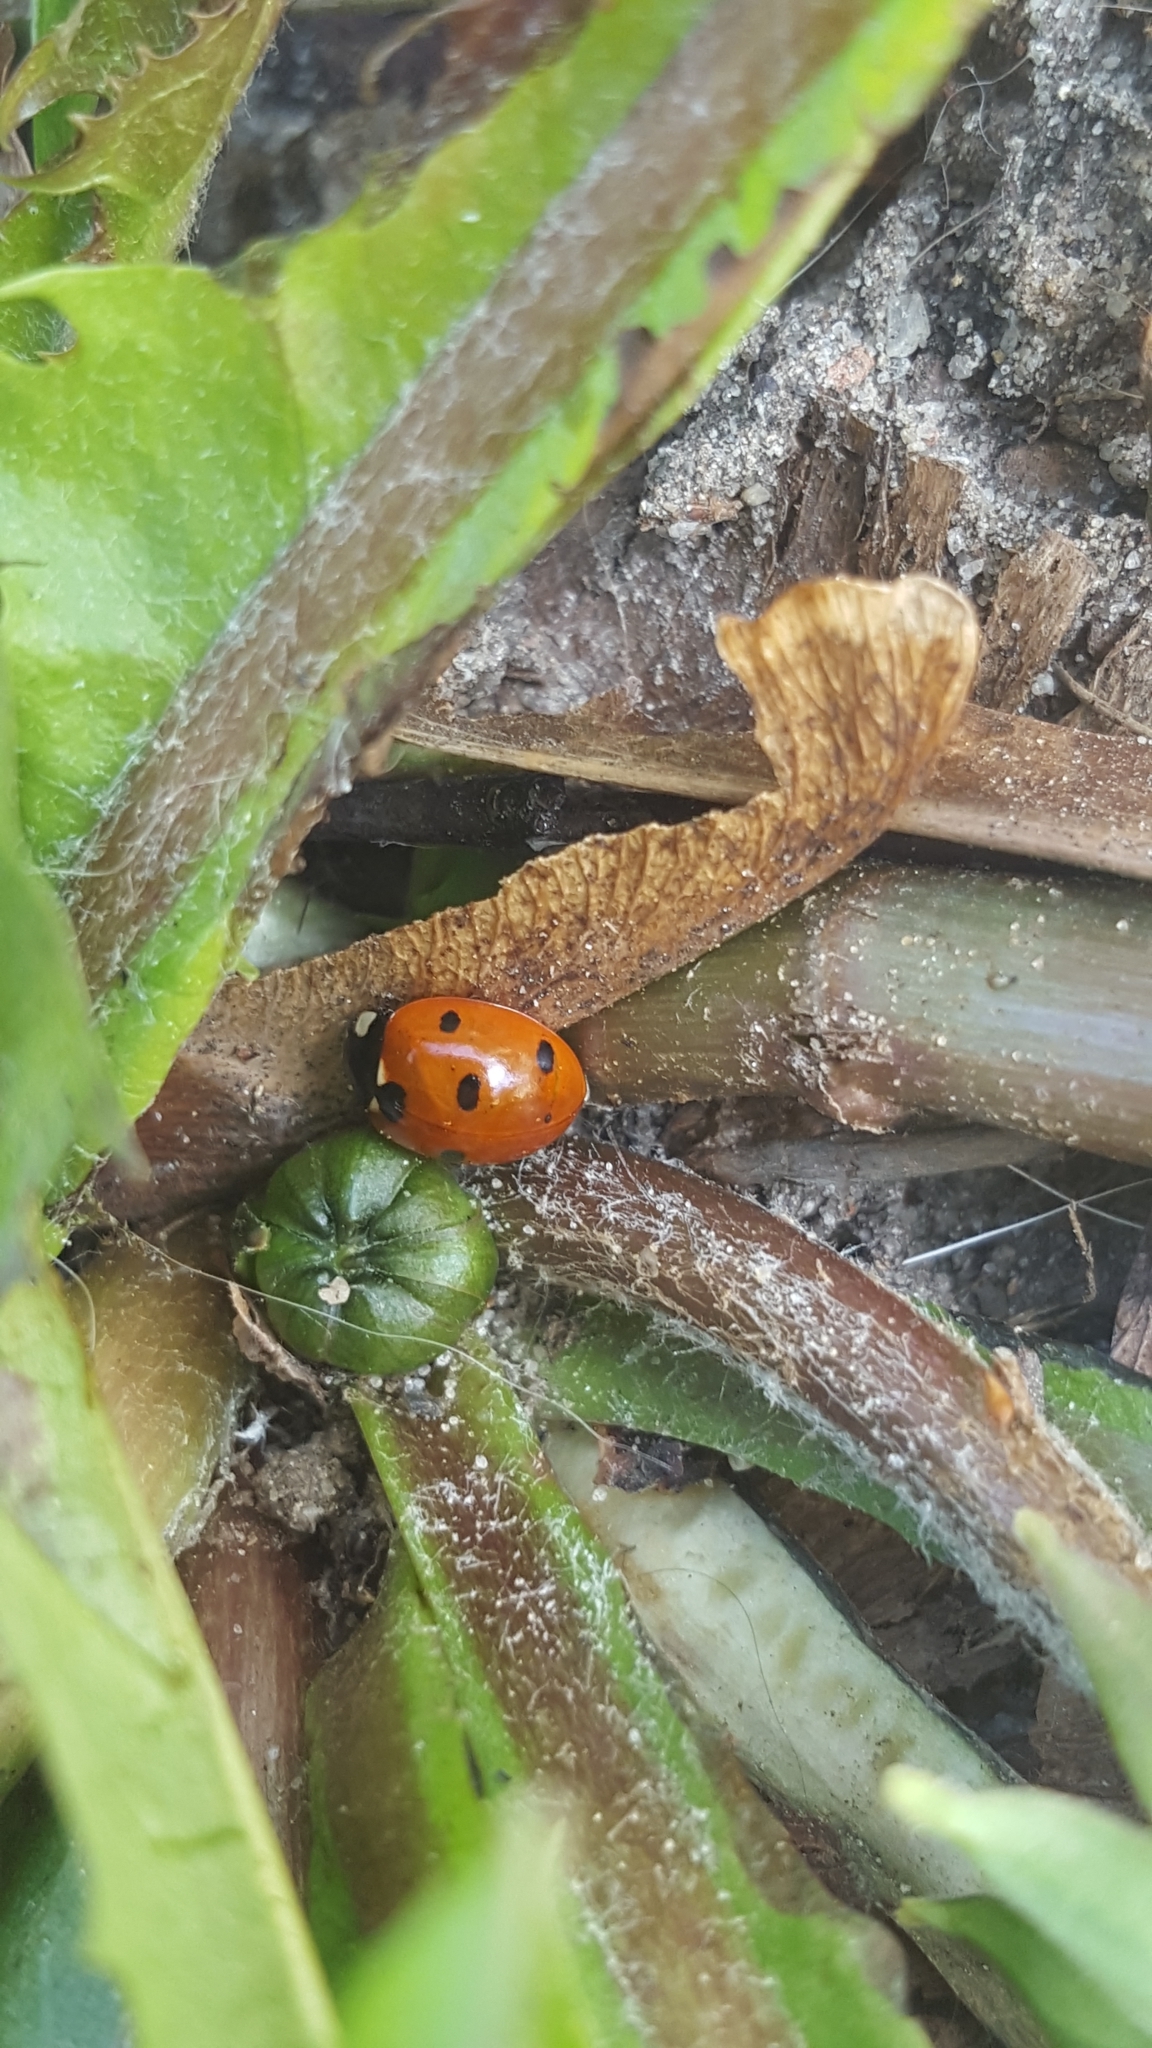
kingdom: Animalia
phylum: Arthropoda
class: Insecta
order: Coleoptera
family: Coccinellidae
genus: Coccinella
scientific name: Coccinella septempunctata
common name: Sevenspotted lady beetle
